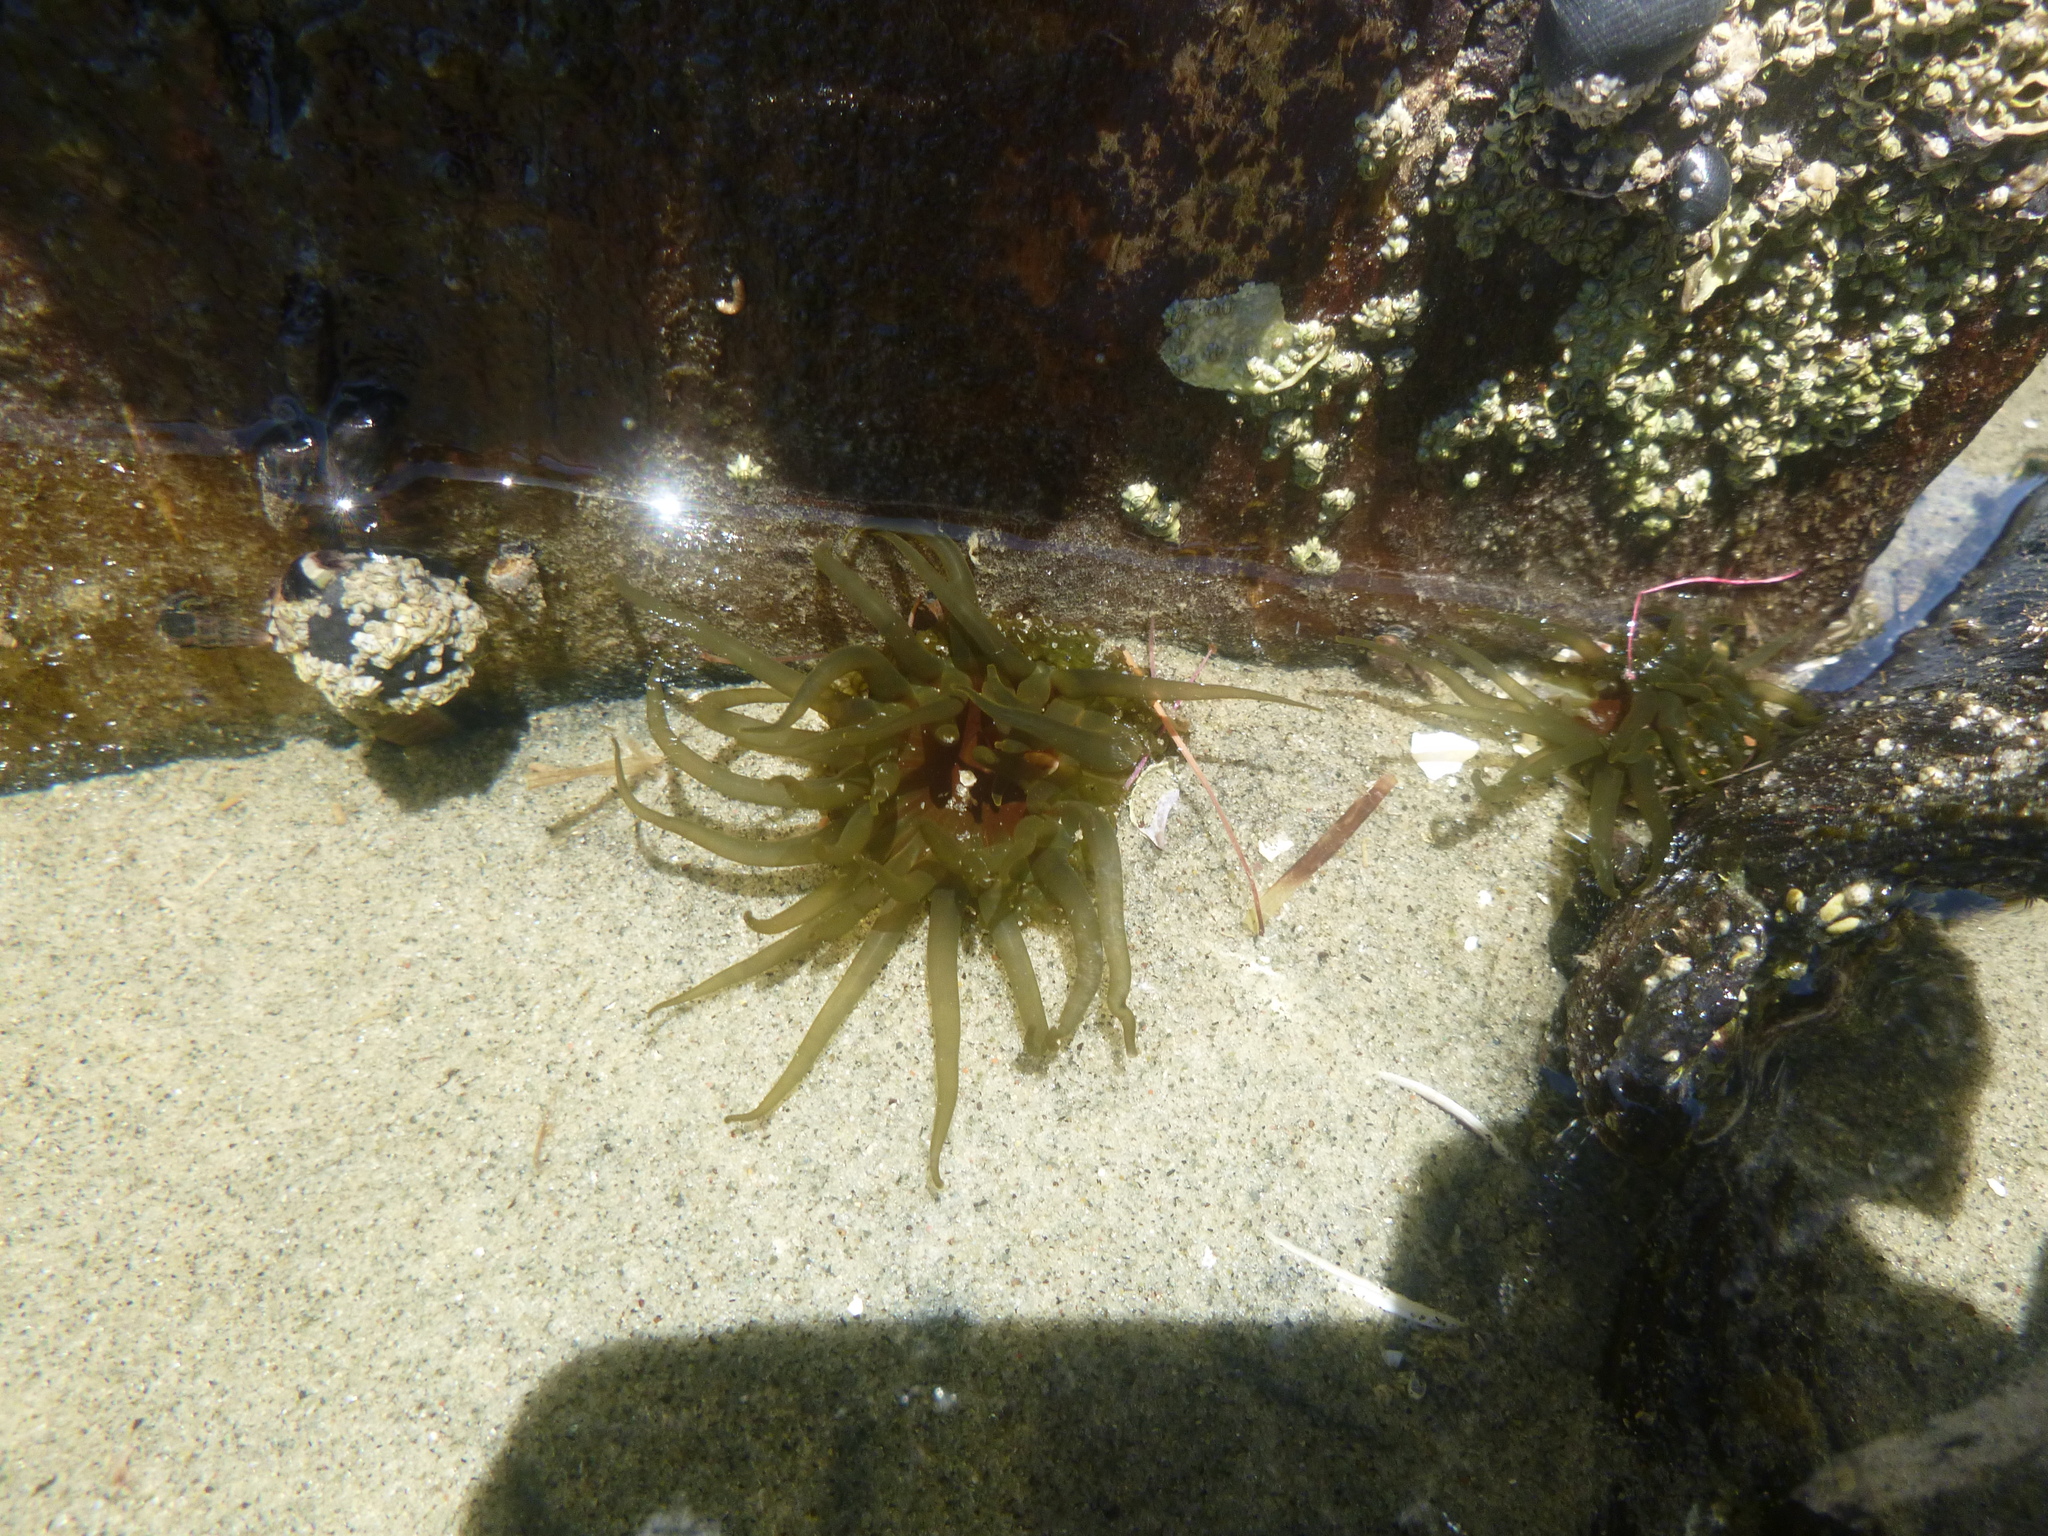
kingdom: Animalia
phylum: Cnidaria
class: Anthozoa
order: Actiniaria
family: Actiniidae
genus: Isactinia
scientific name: Isactinia olivacea
